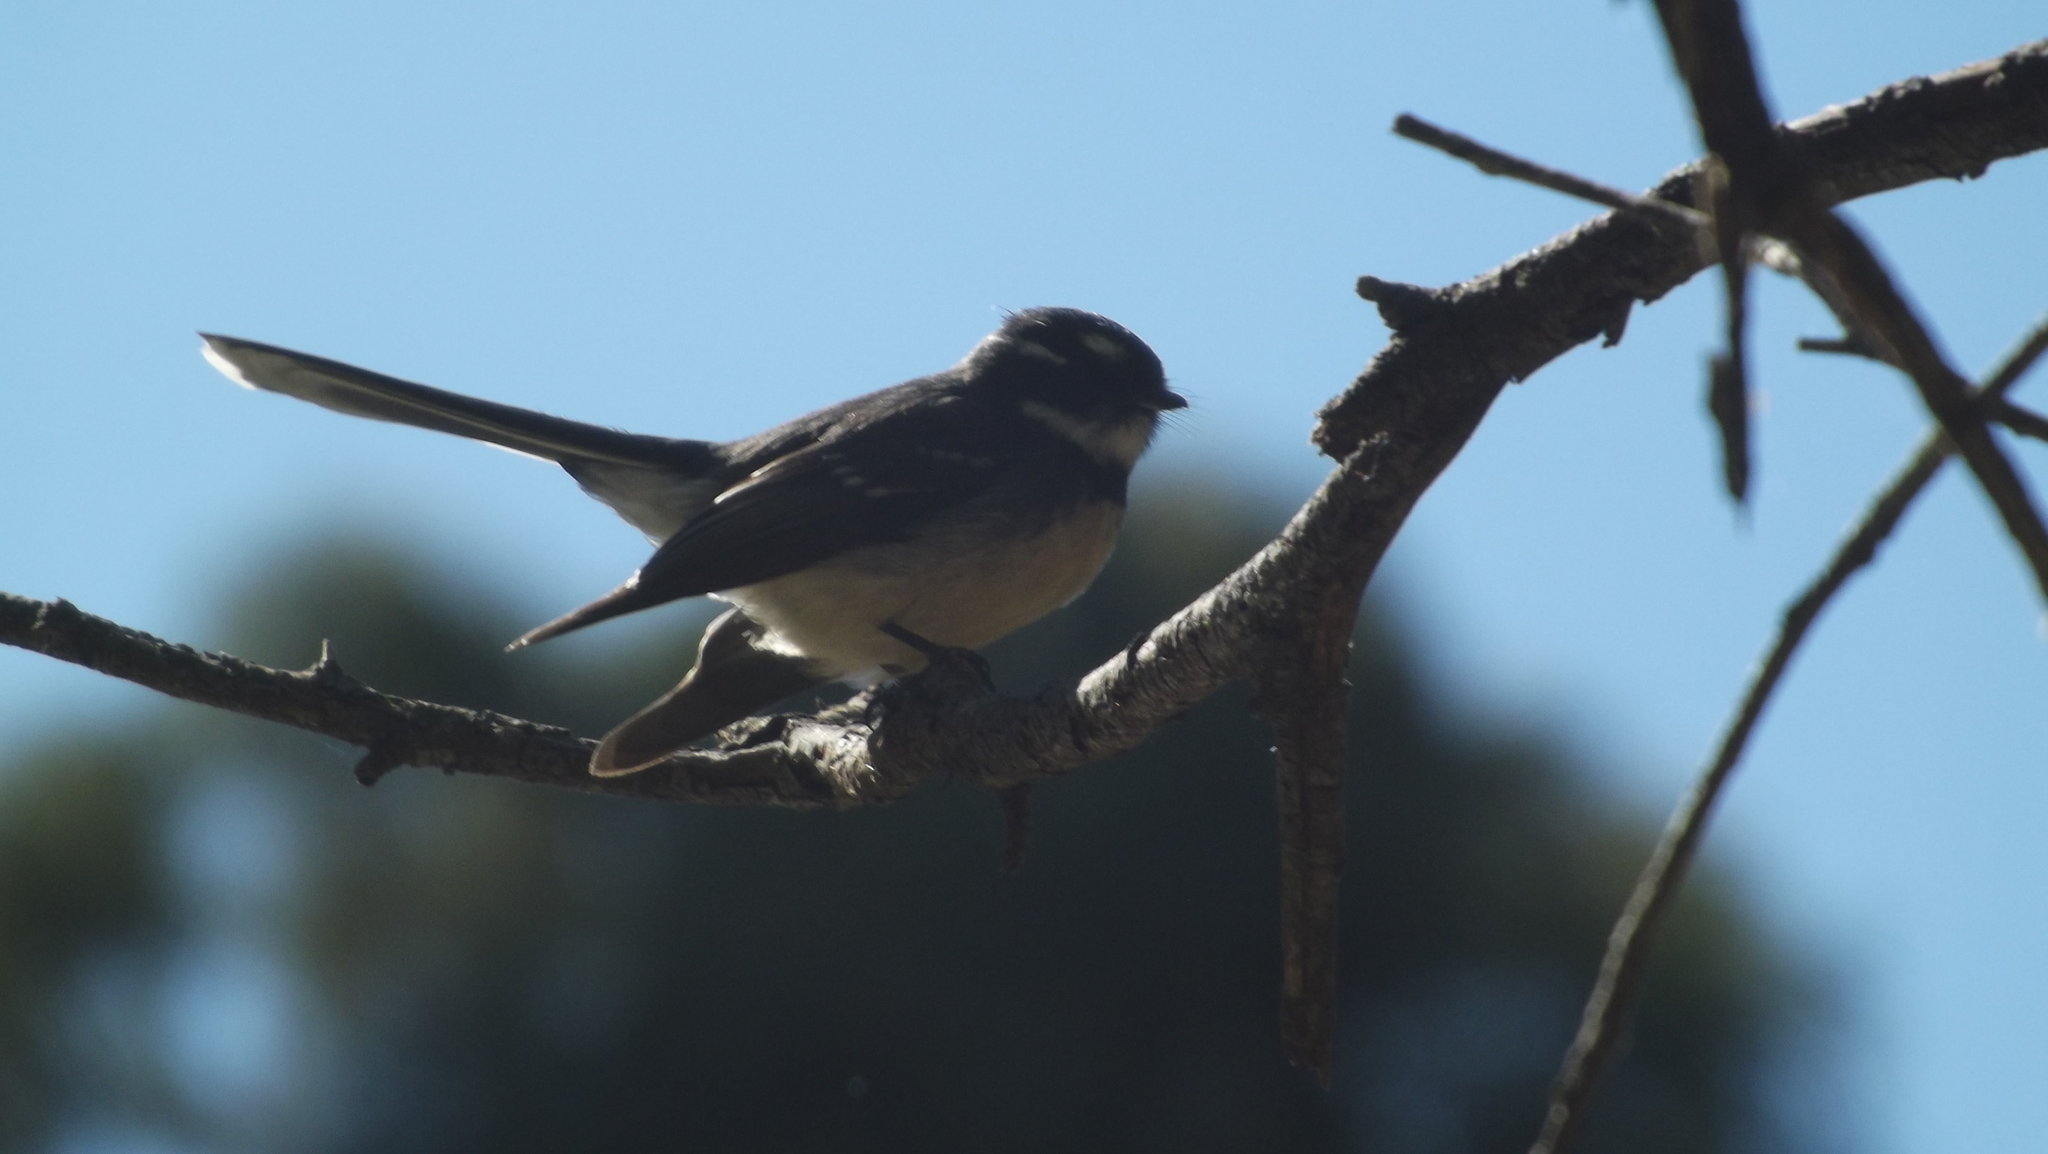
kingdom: Animalia
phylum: Chordata
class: Aves
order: Passeriformes
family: Rhipiduridae
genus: Rhipidura
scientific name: Rhipidura albiscapa
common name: Grey fantail
